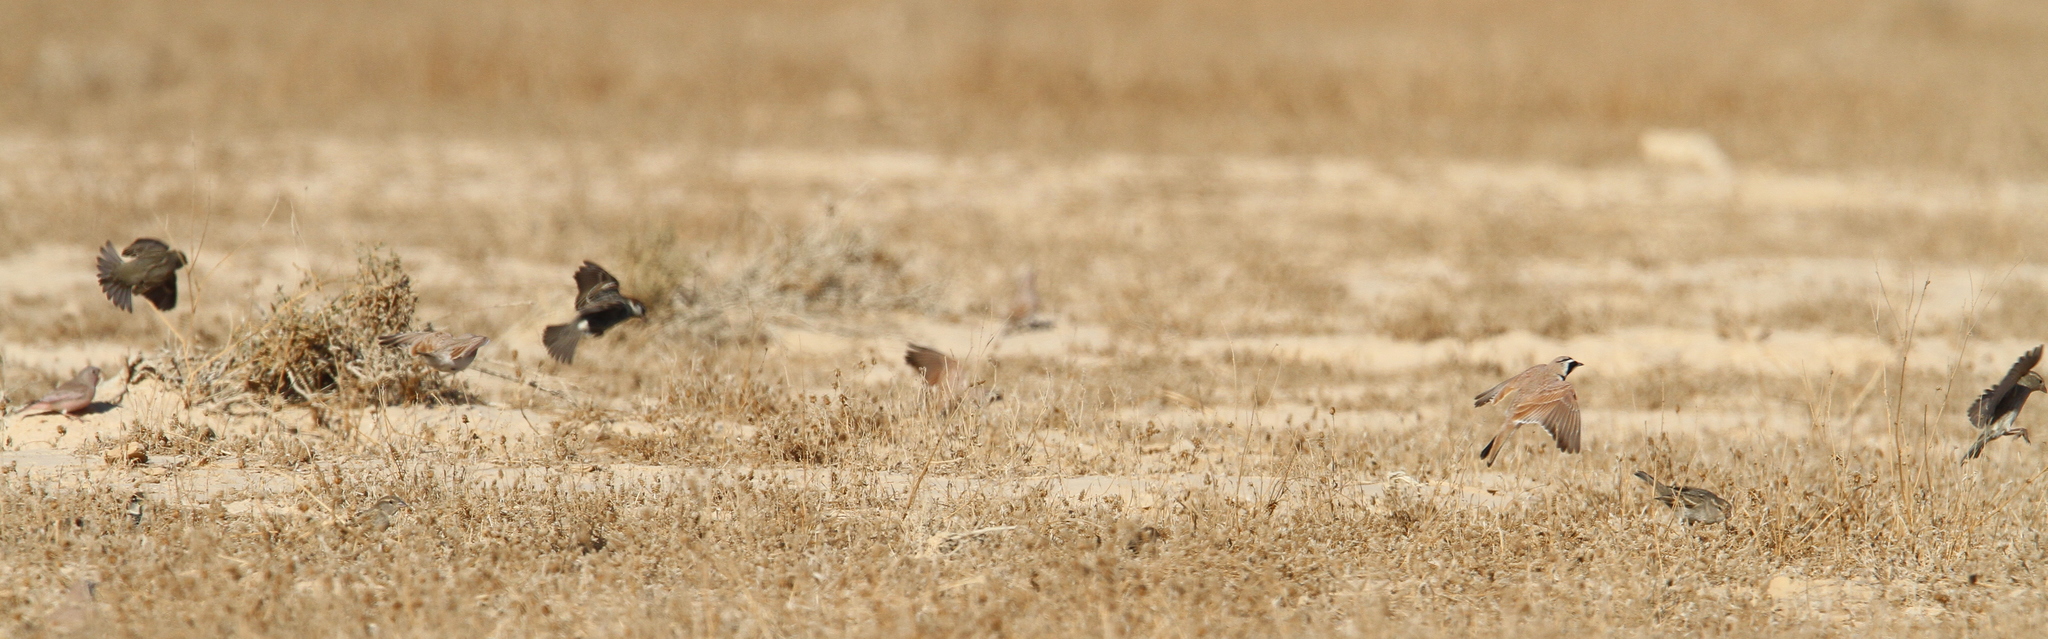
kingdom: Animalia
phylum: Chordata
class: Aves
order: Passeriformes
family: Passeridae
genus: Passer
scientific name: Passer hispaniolensis
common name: Spanish sparrow
